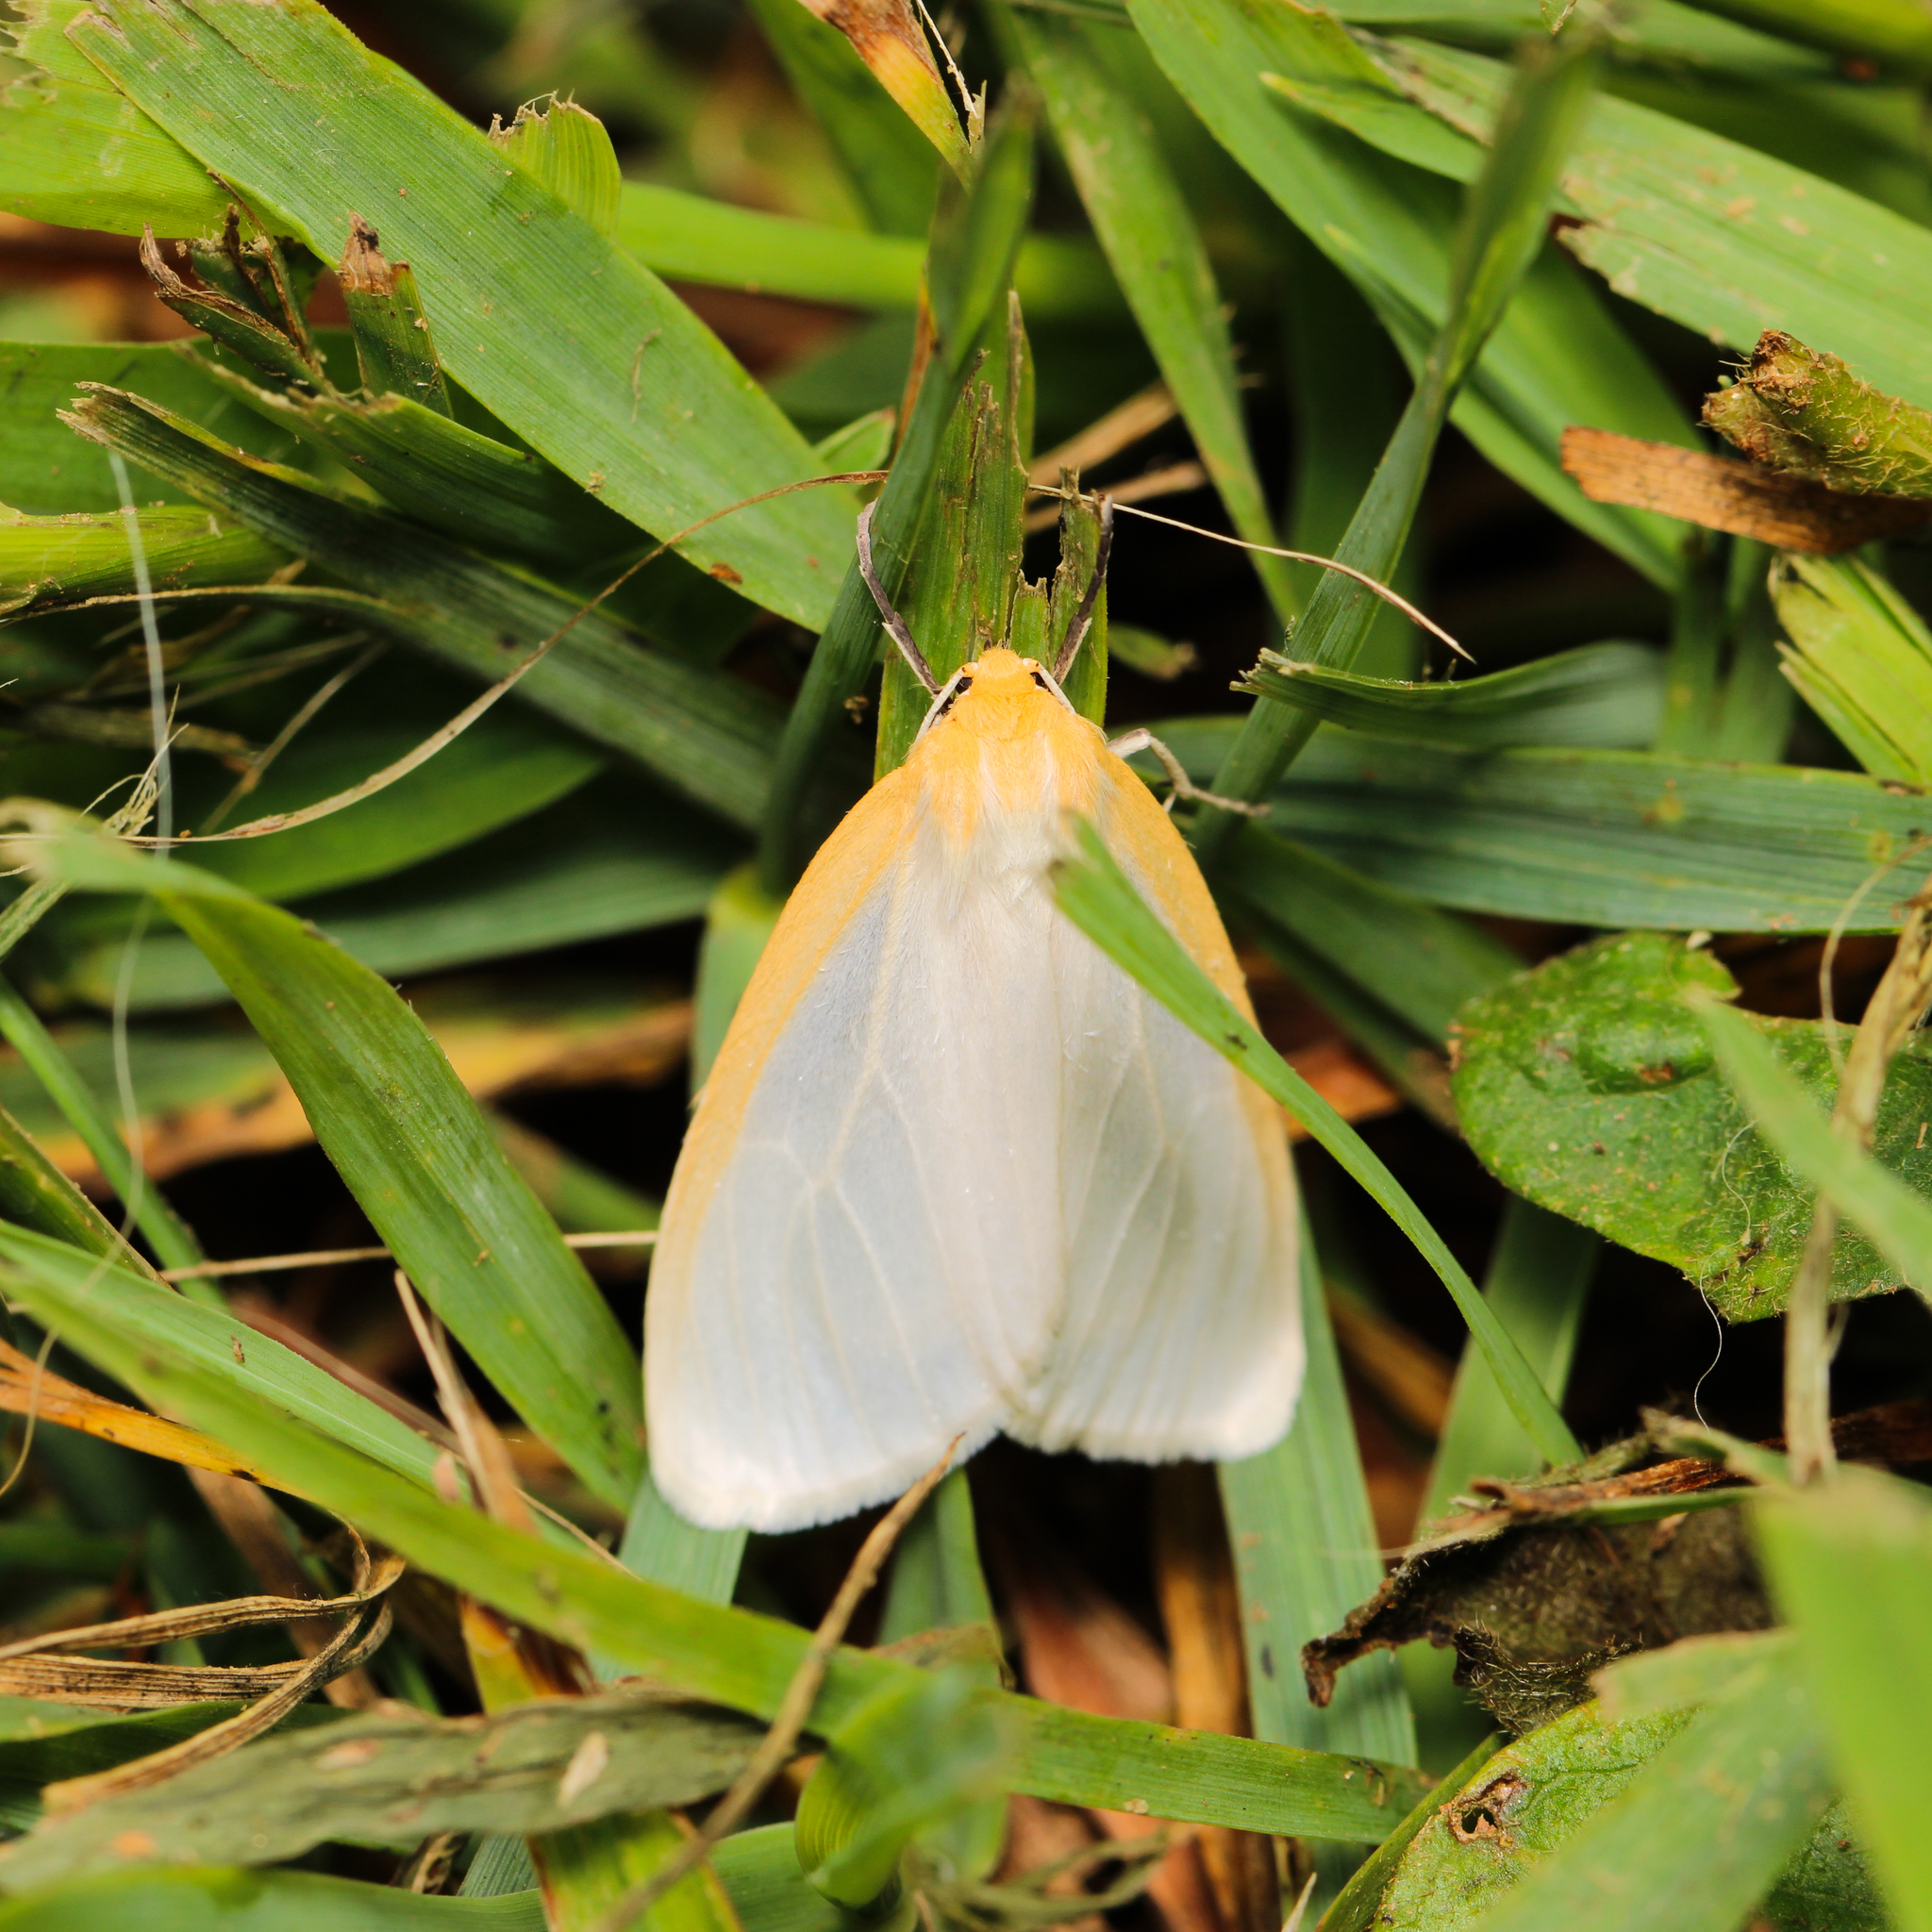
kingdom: Animalia
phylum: Arthropoda
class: Insecta
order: Lepidoptera
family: Erebidae
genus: Cycnia
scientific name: Cycnia tenera
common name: Delicate cycnia moth
